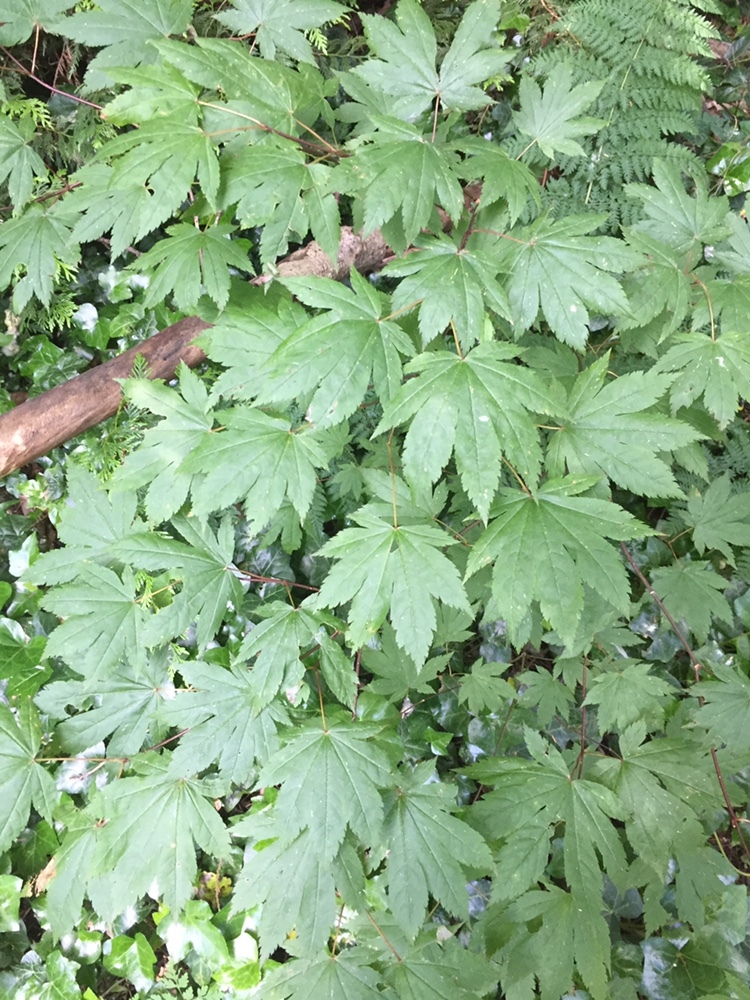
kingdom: Plantae
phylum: Tracheophyta
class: Magnoliopsida
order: Sapindales
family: Sapindaceae
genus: Acer
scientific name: Acer circinatum
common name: Vine maple
